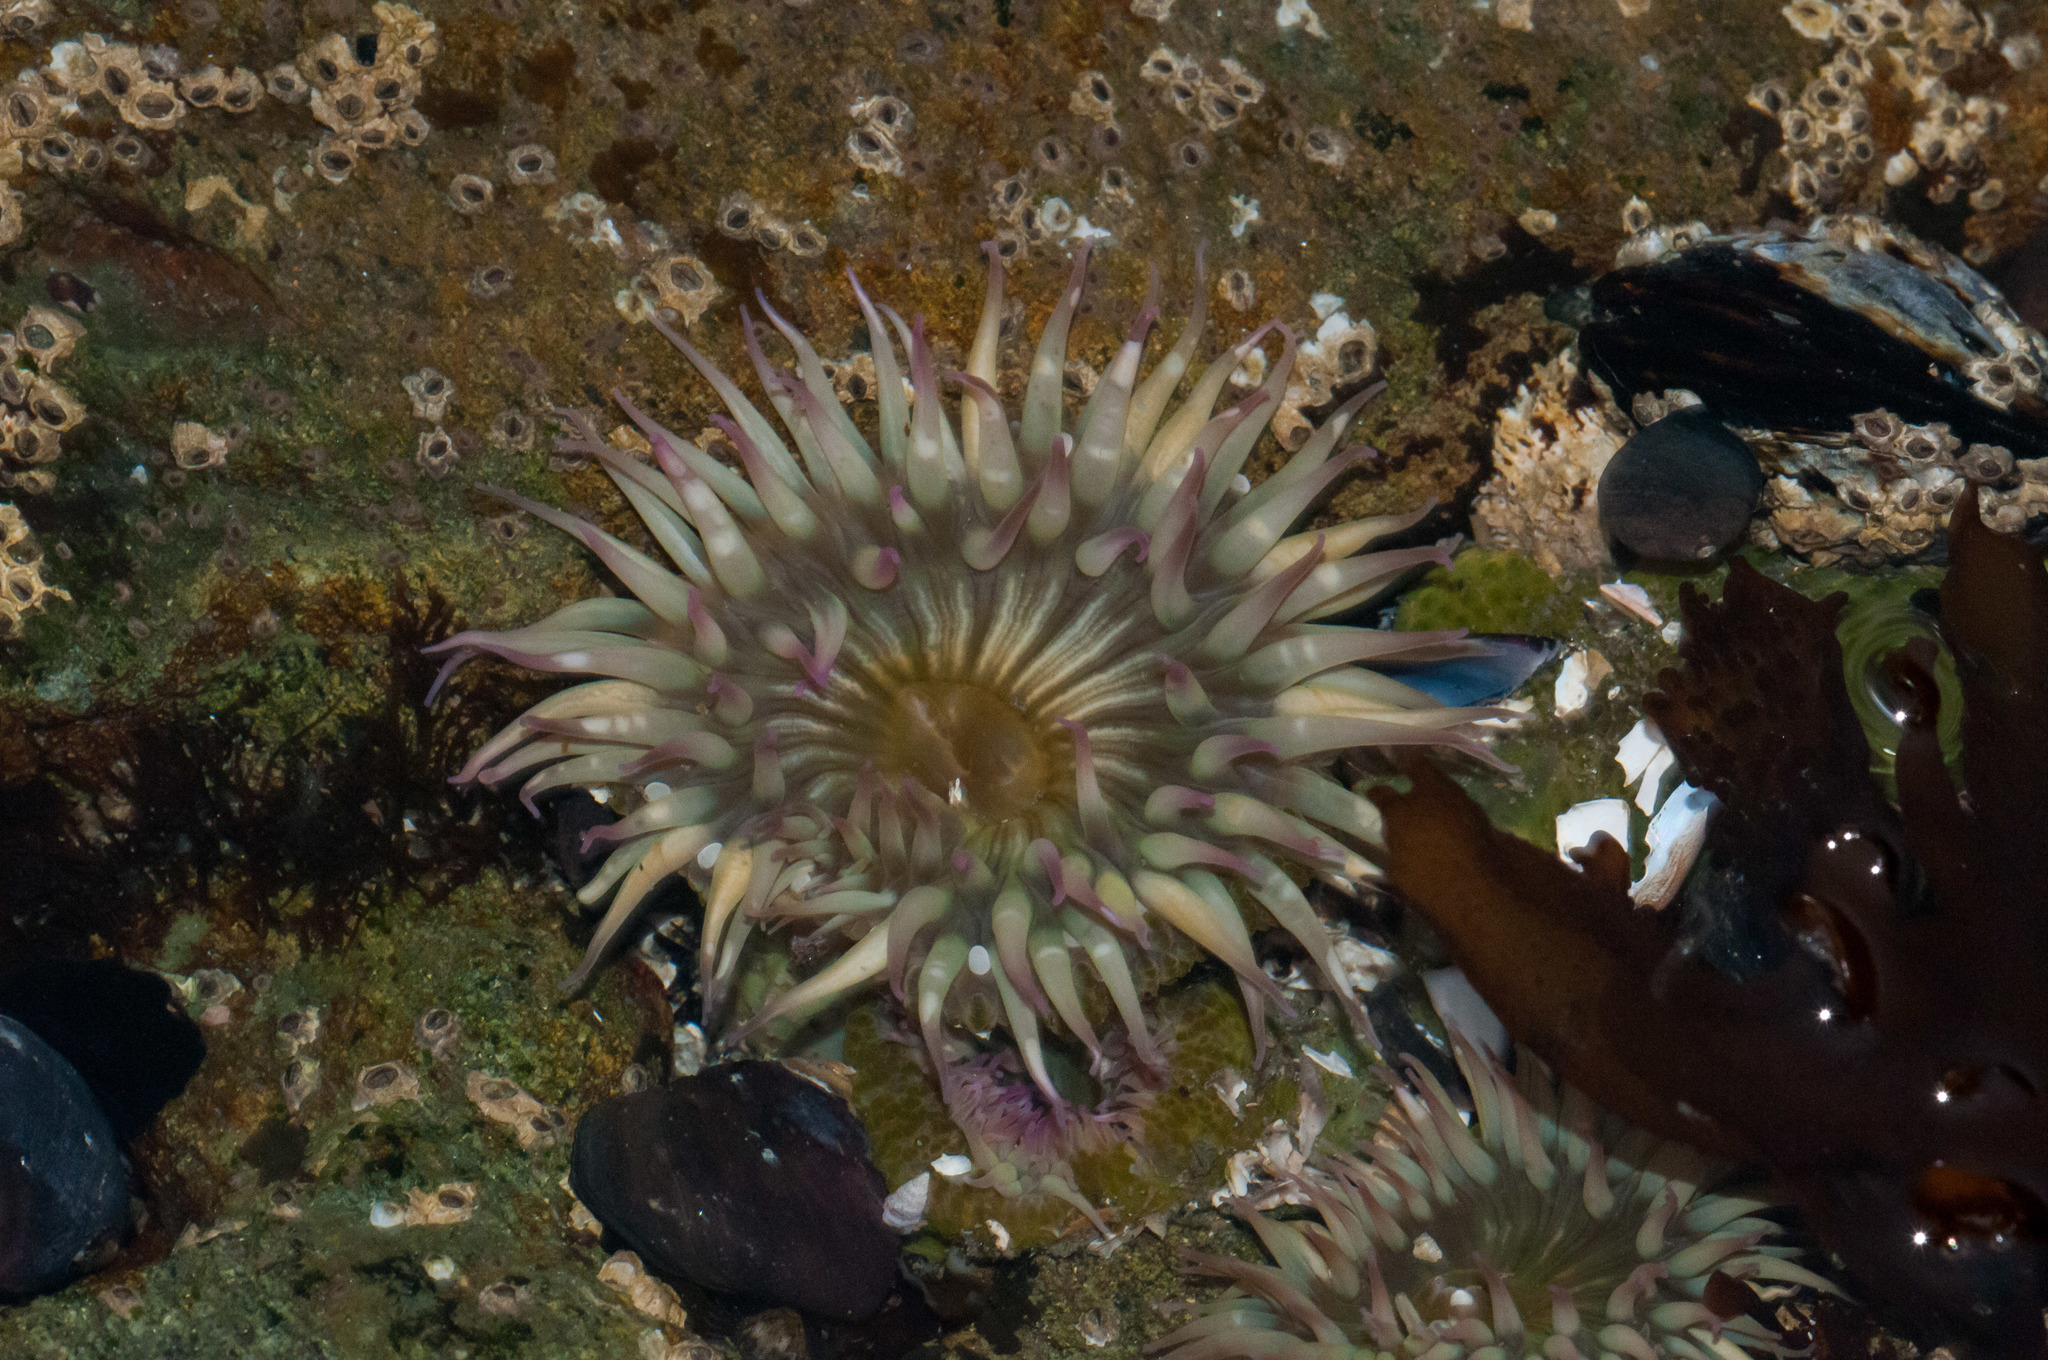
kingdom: Animalia
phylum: Cnidaria
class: Anthozoa
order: Actiniaria
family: Actiniidae
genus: Anthopleura
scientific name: Anthopleura elegantissima
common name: Clonal anemone
